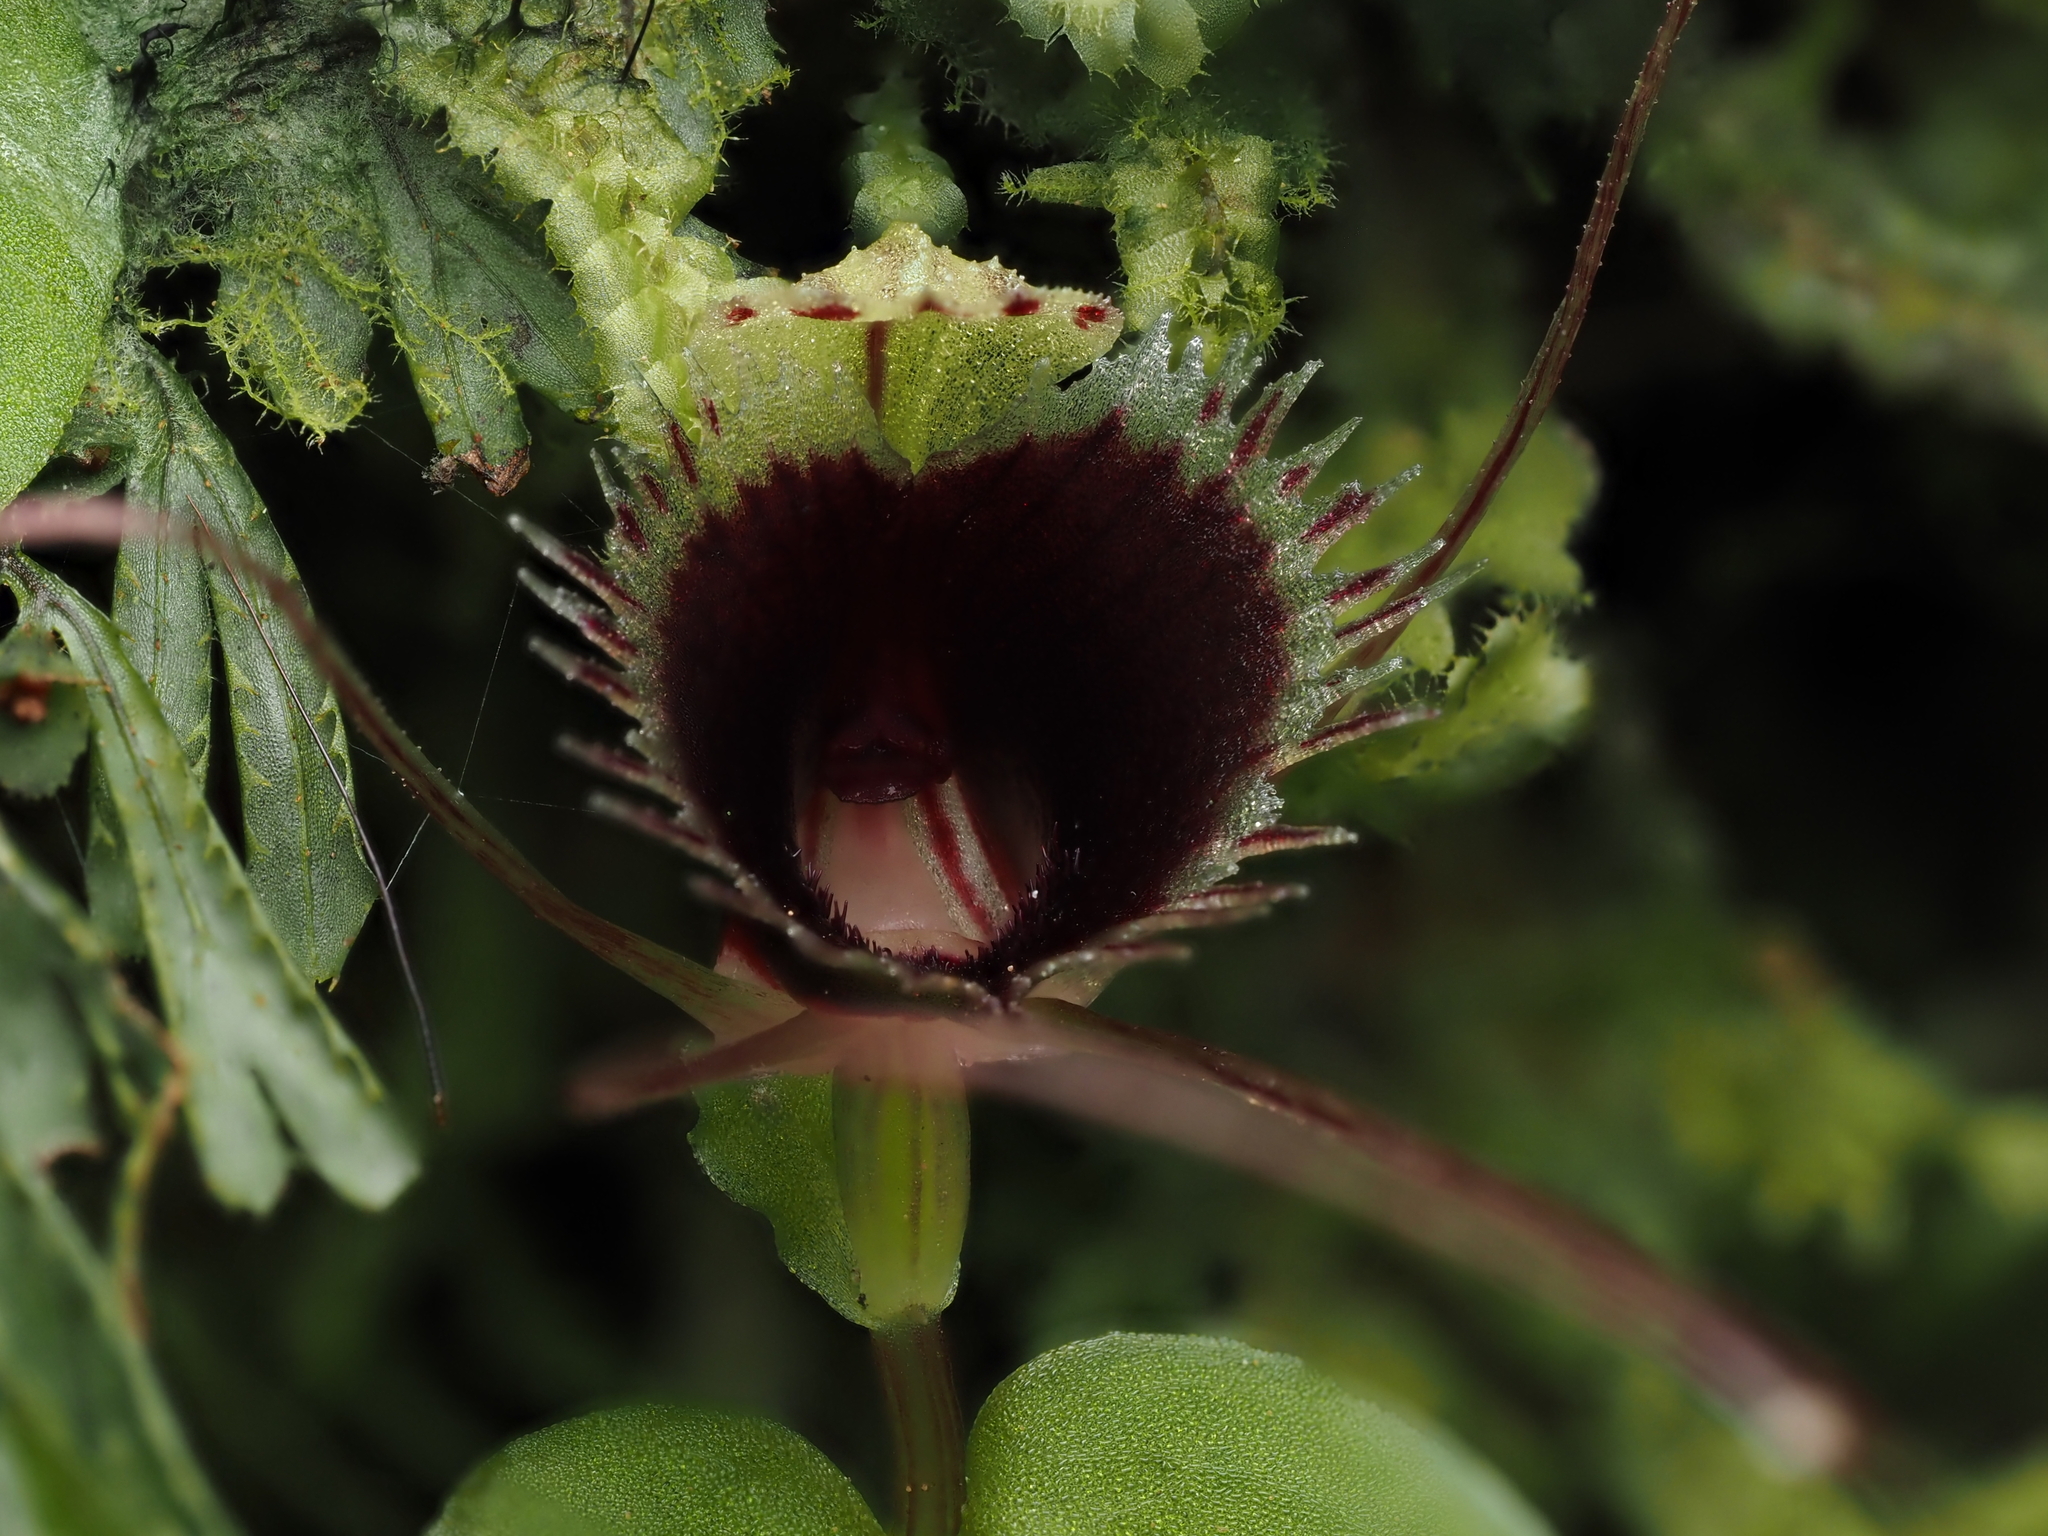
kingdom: Plantae
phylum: Tracheophyta
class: Liliopsida
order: Asparagales
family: Orchidaceae
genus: Corybas
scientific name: Corybas oblongus
